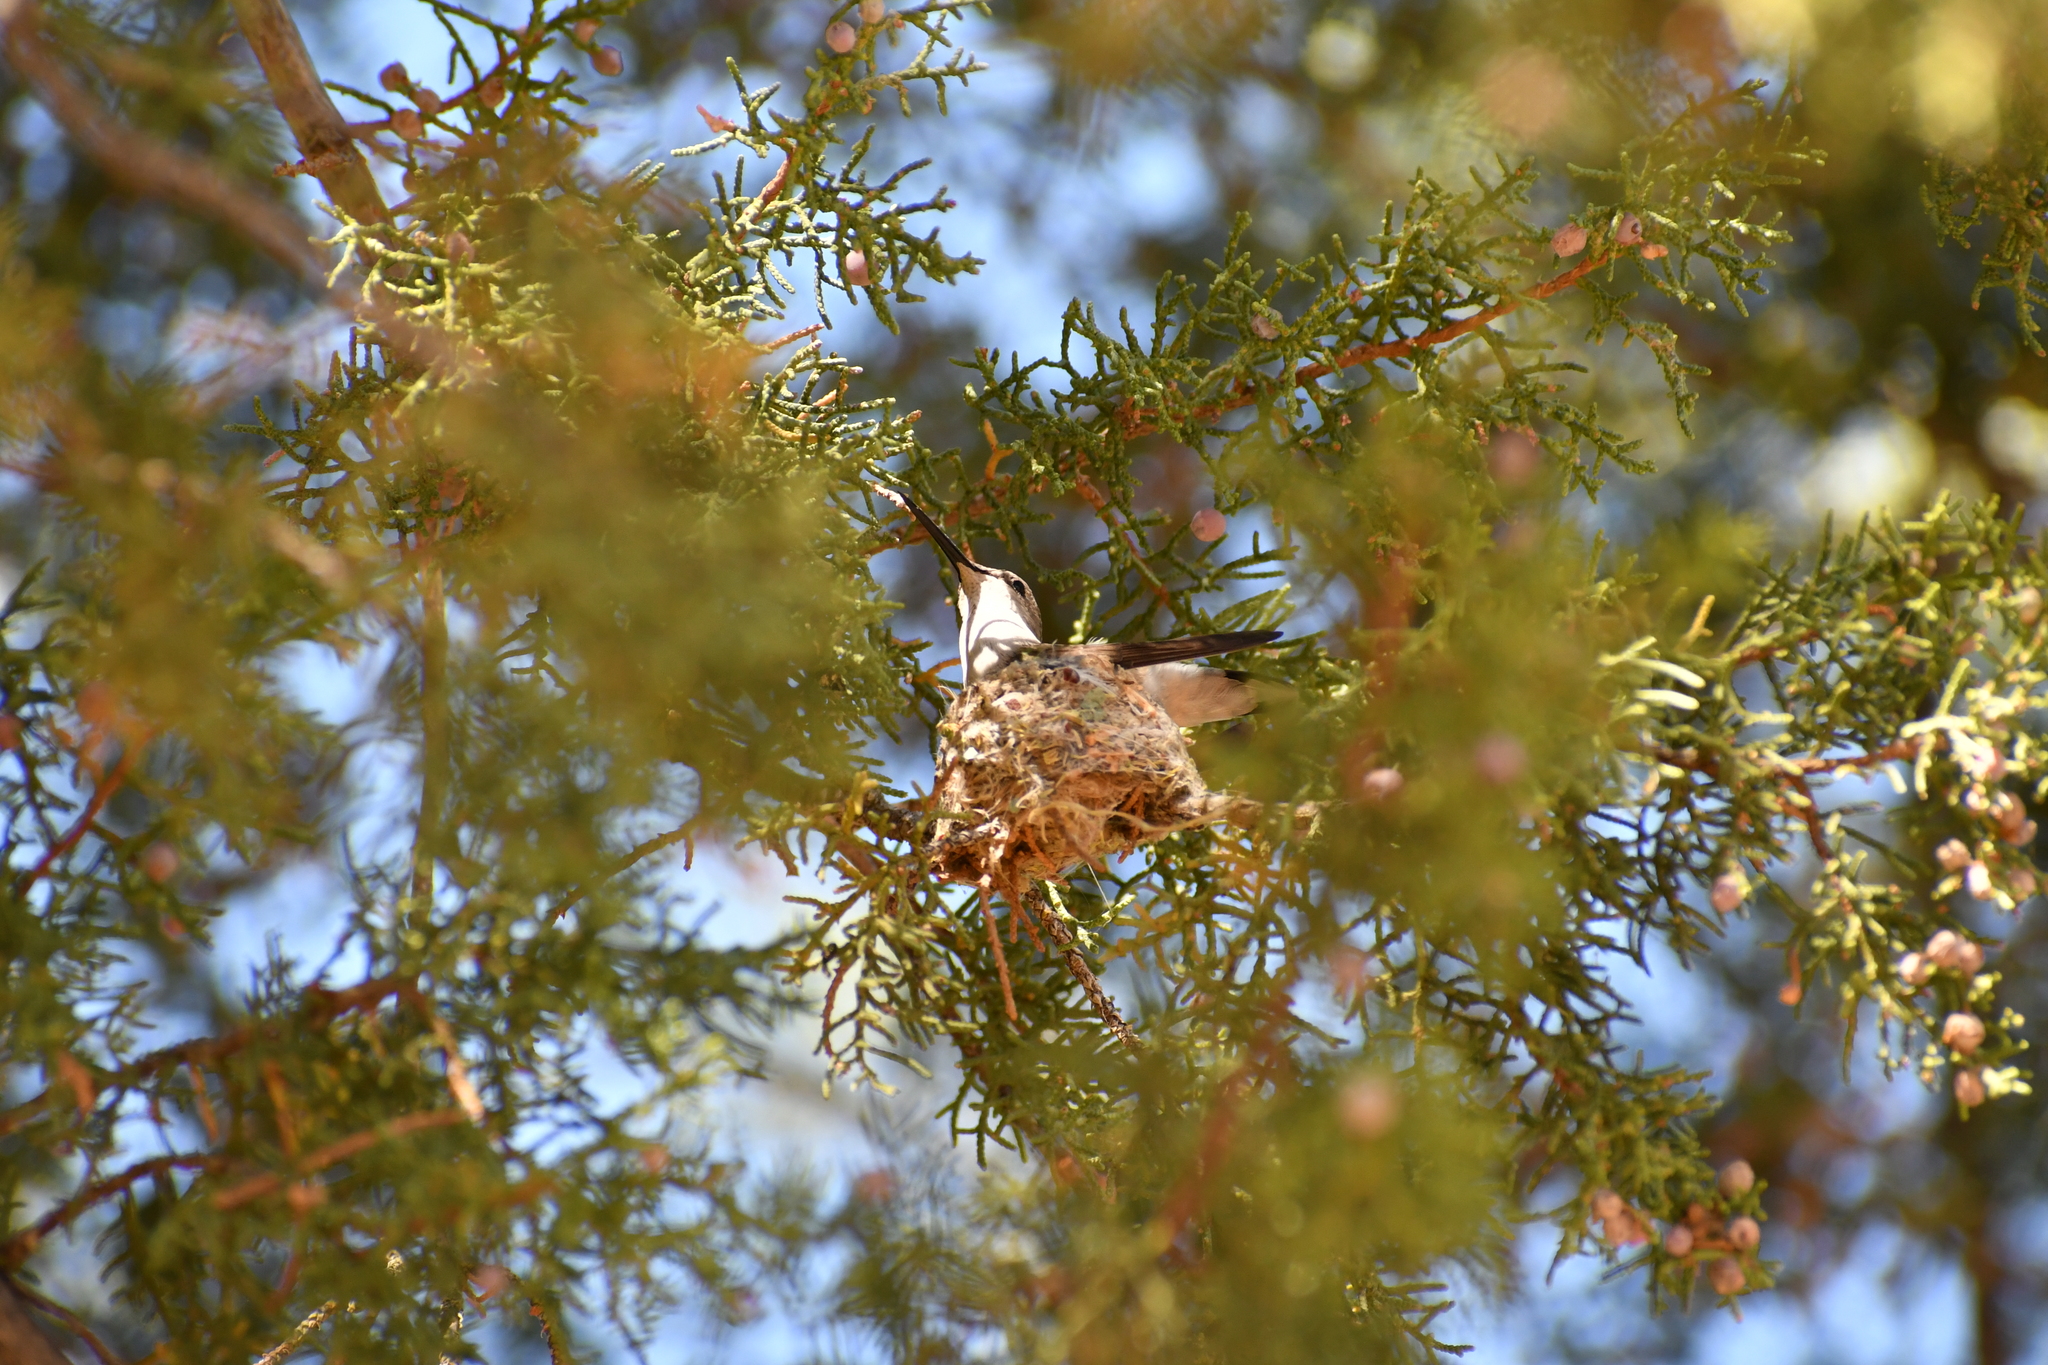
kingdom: Animalia
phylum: Chordata
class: Aves
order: Apodiformes
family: Trochilidae
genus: Archilochus
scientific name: Archilochus alexandri
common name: Black-chinned hummingbird
